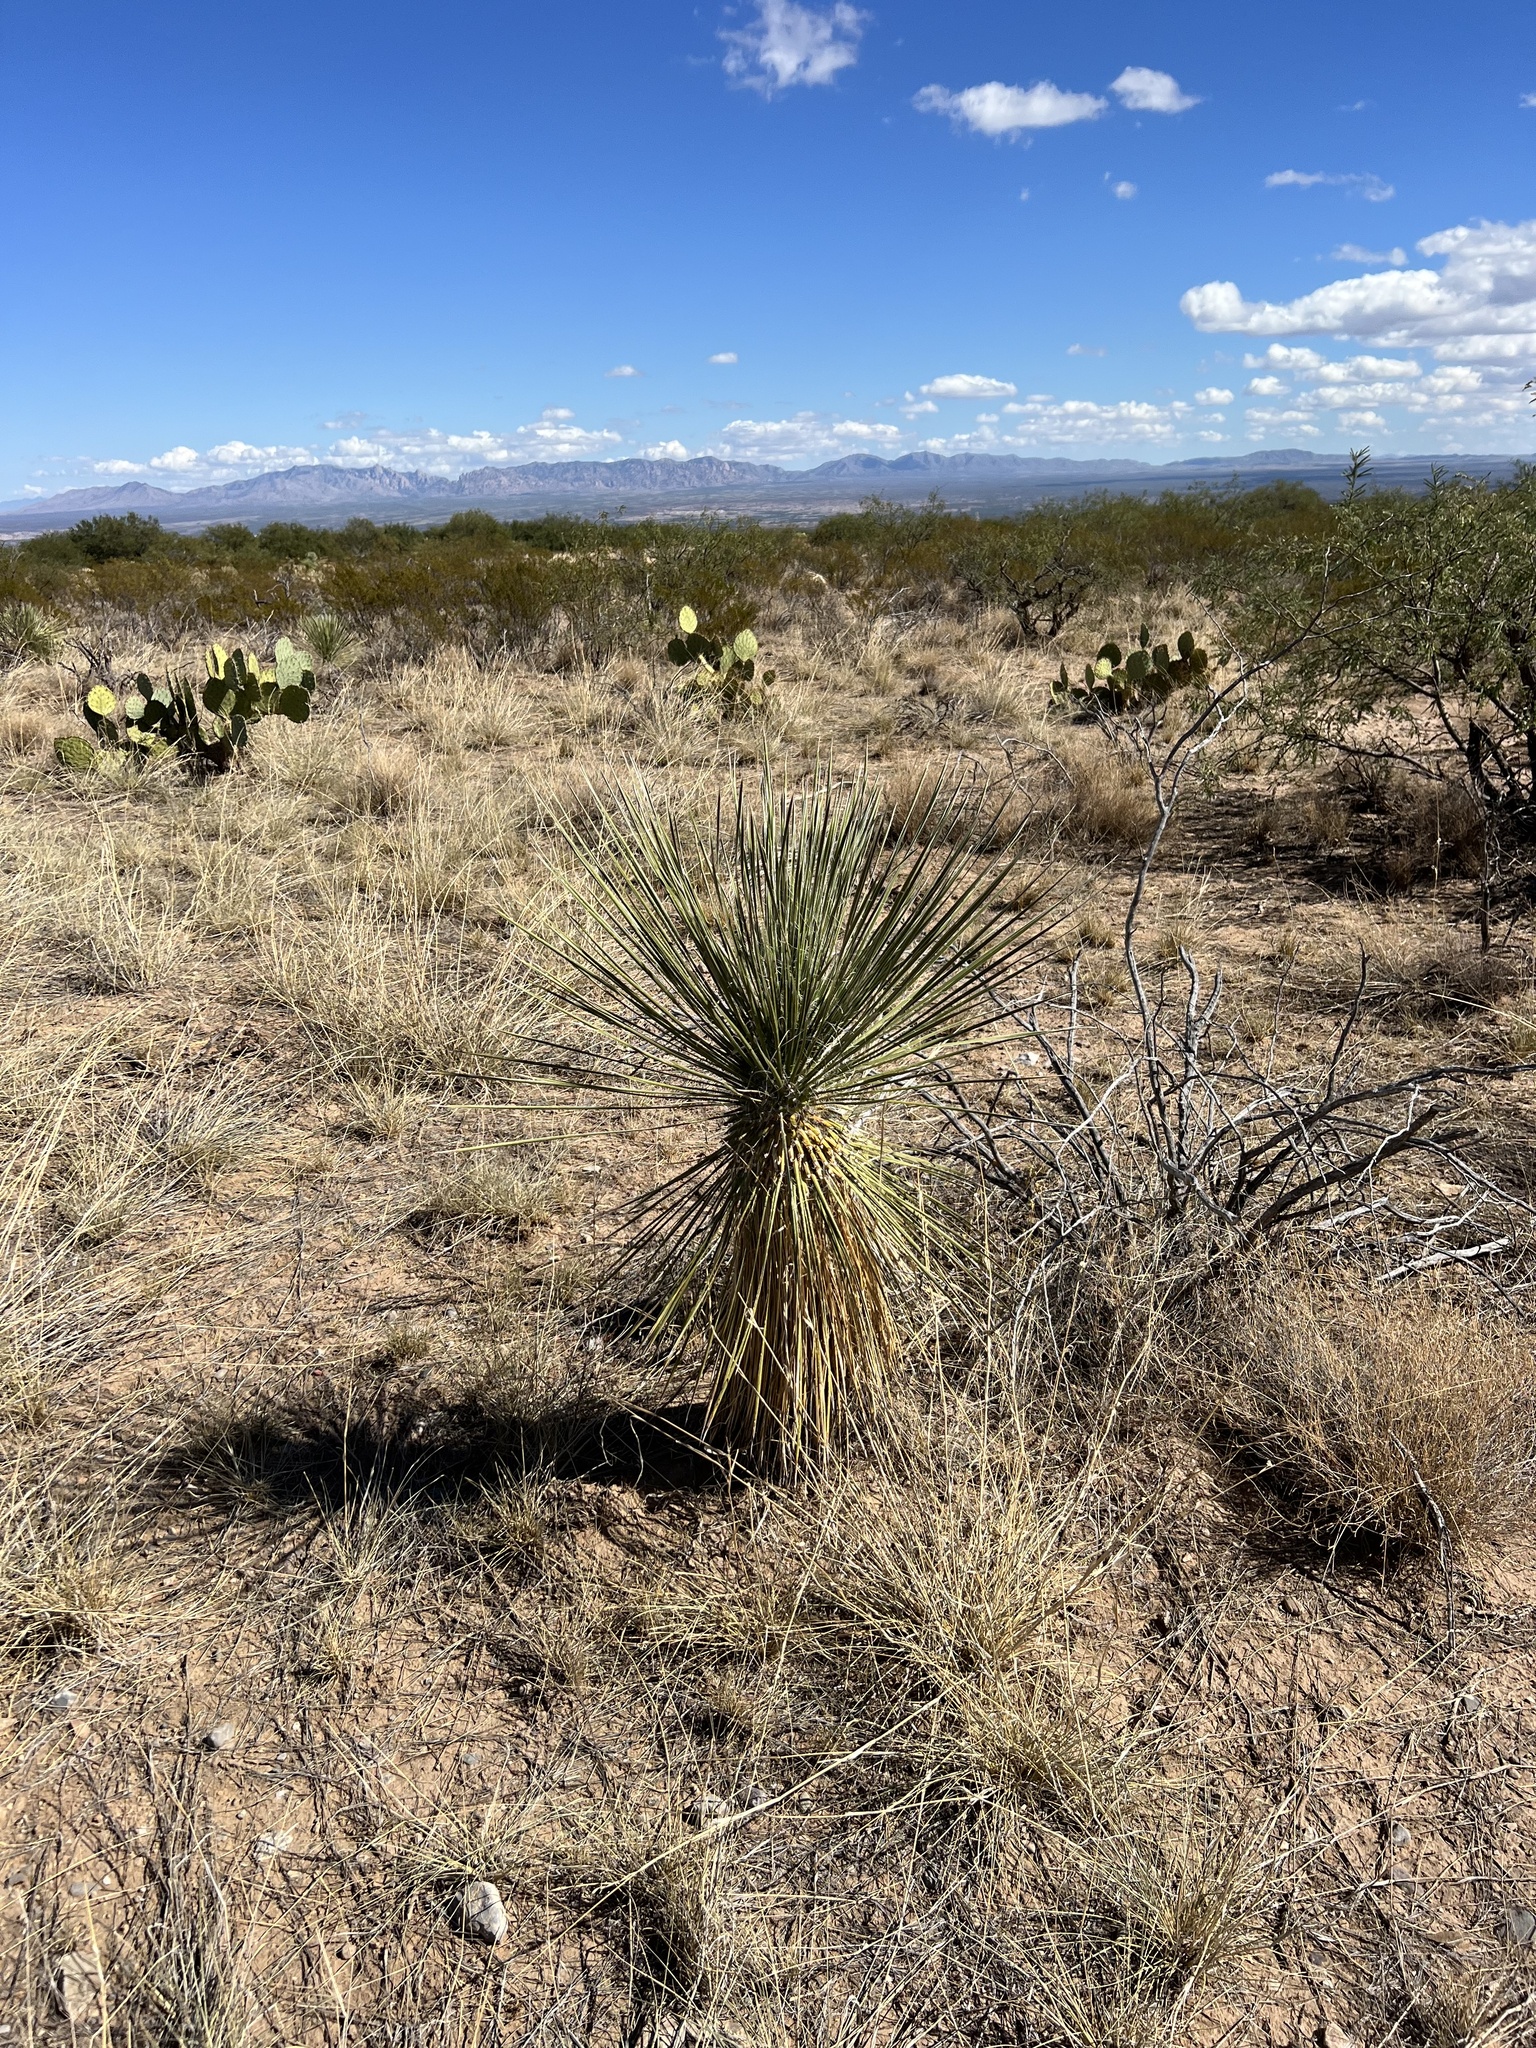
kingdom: Plantae
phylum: Tracheophyta
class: Liliopsida
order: Asparagales
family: Asparagaceae
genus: Yucca
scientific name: Yucca elata
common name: Palmella
